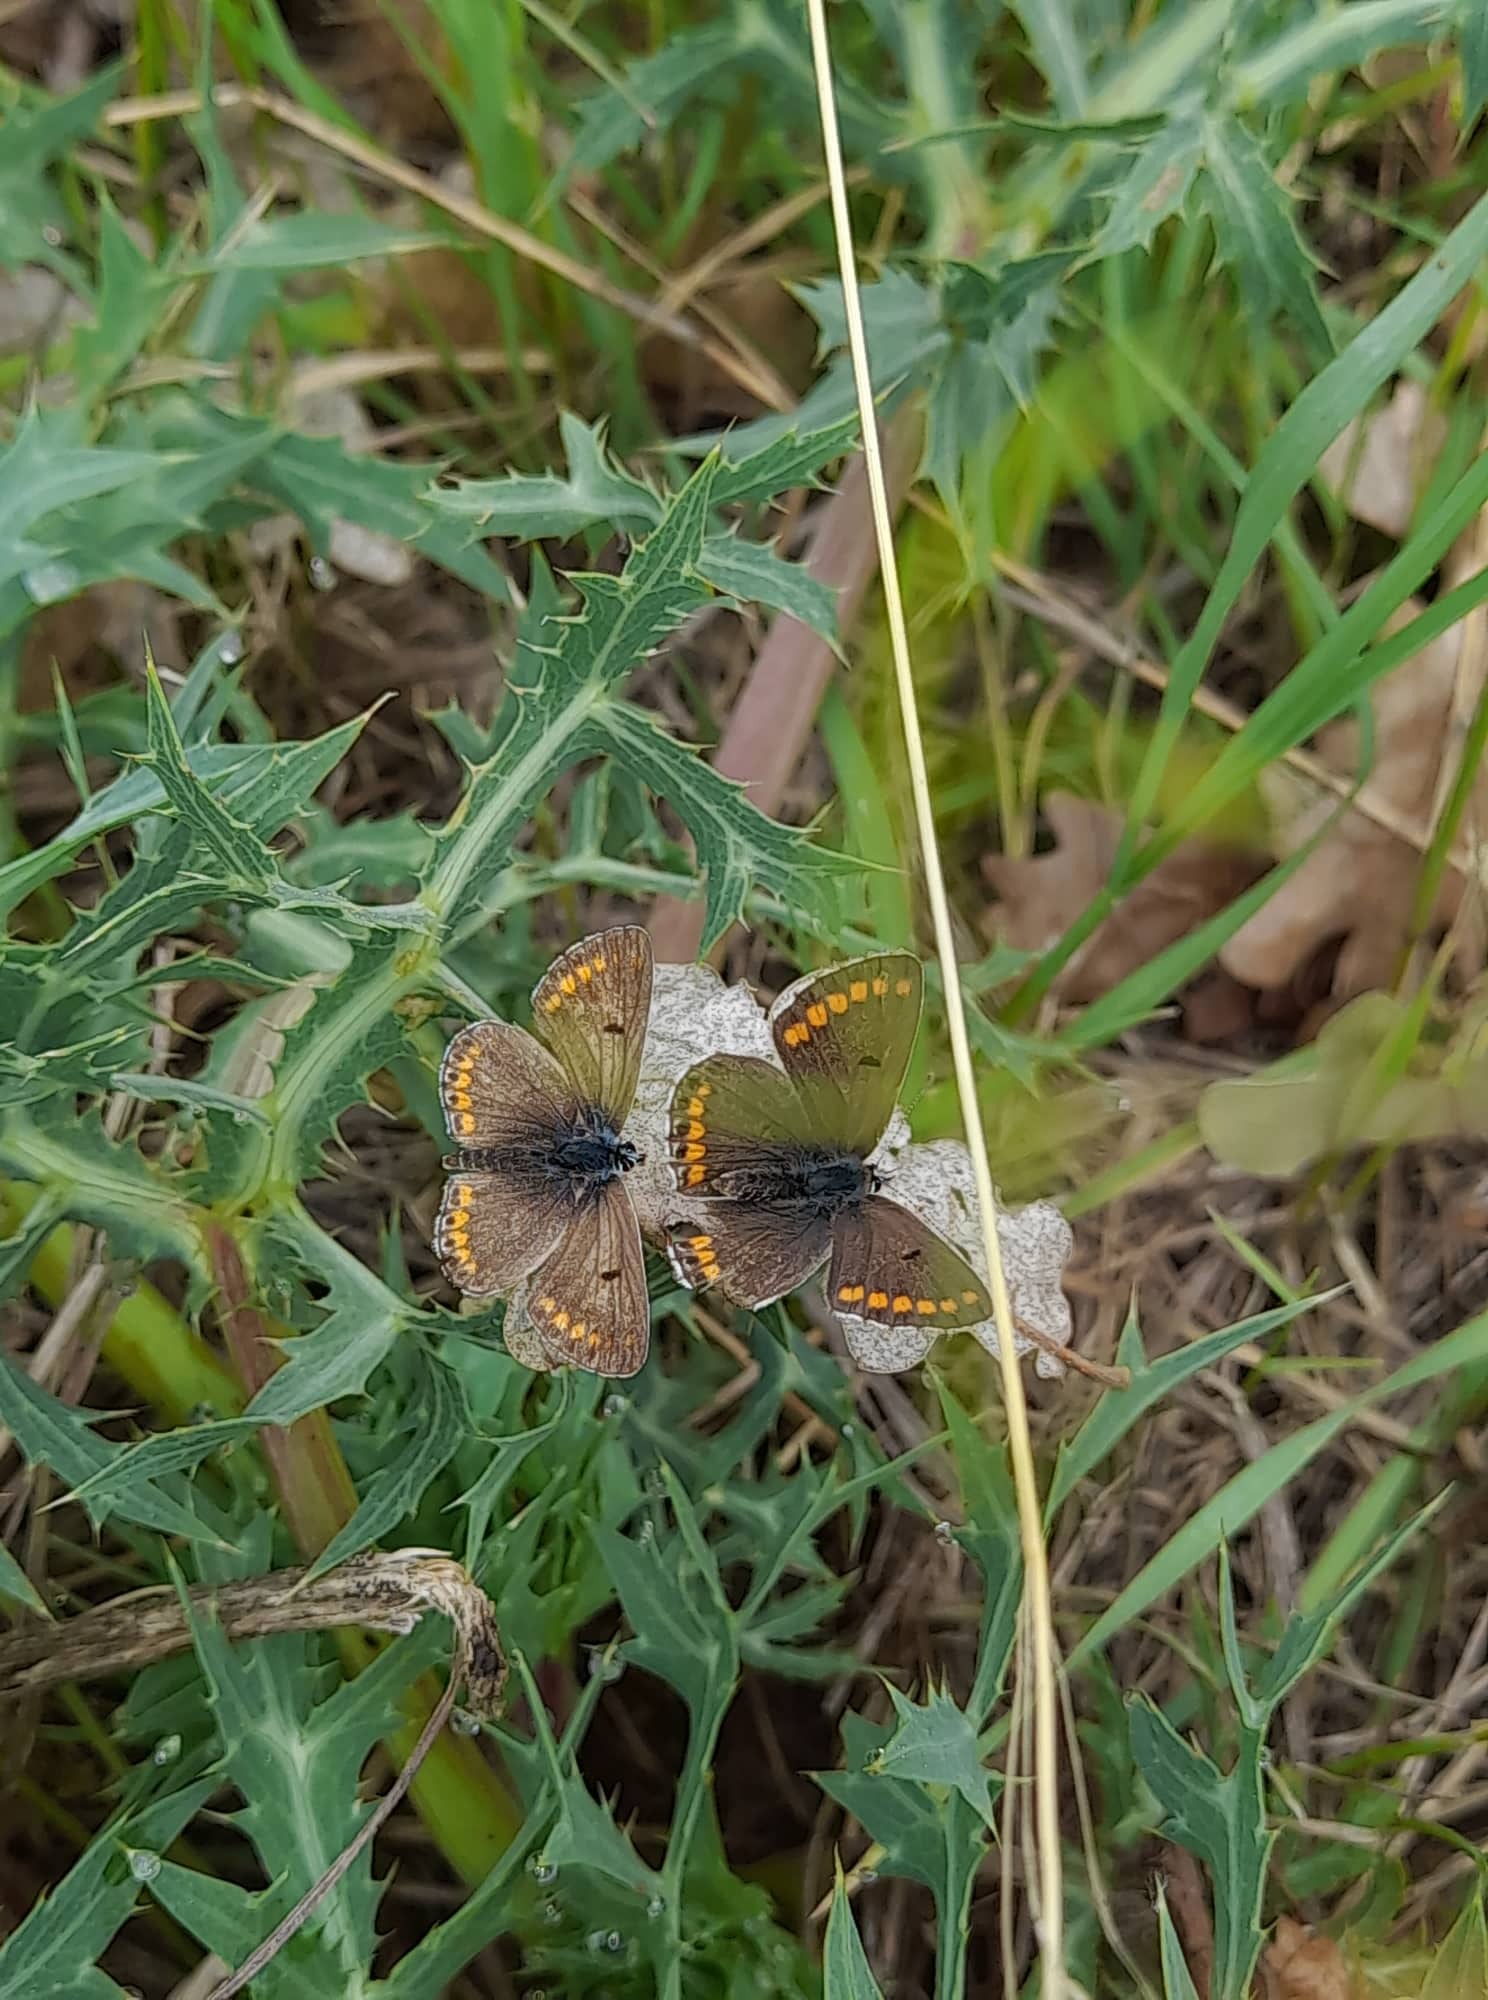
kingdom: Animalia
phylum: Arthropoda
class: Insecta
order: Lepidoptera
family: Lycaenidae
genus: Aricia
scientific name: Aricia agestis
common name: Brown argus
